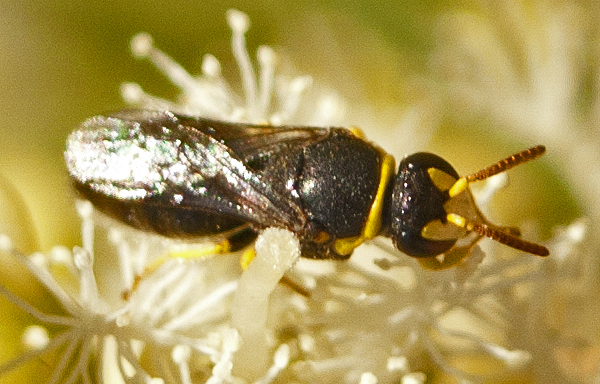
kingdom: Animalia
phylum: Arthropoda
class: Insecta
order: Hymenoptera
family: Colletidae
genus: Hylaeus
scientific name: Hylaeus euxanthus
